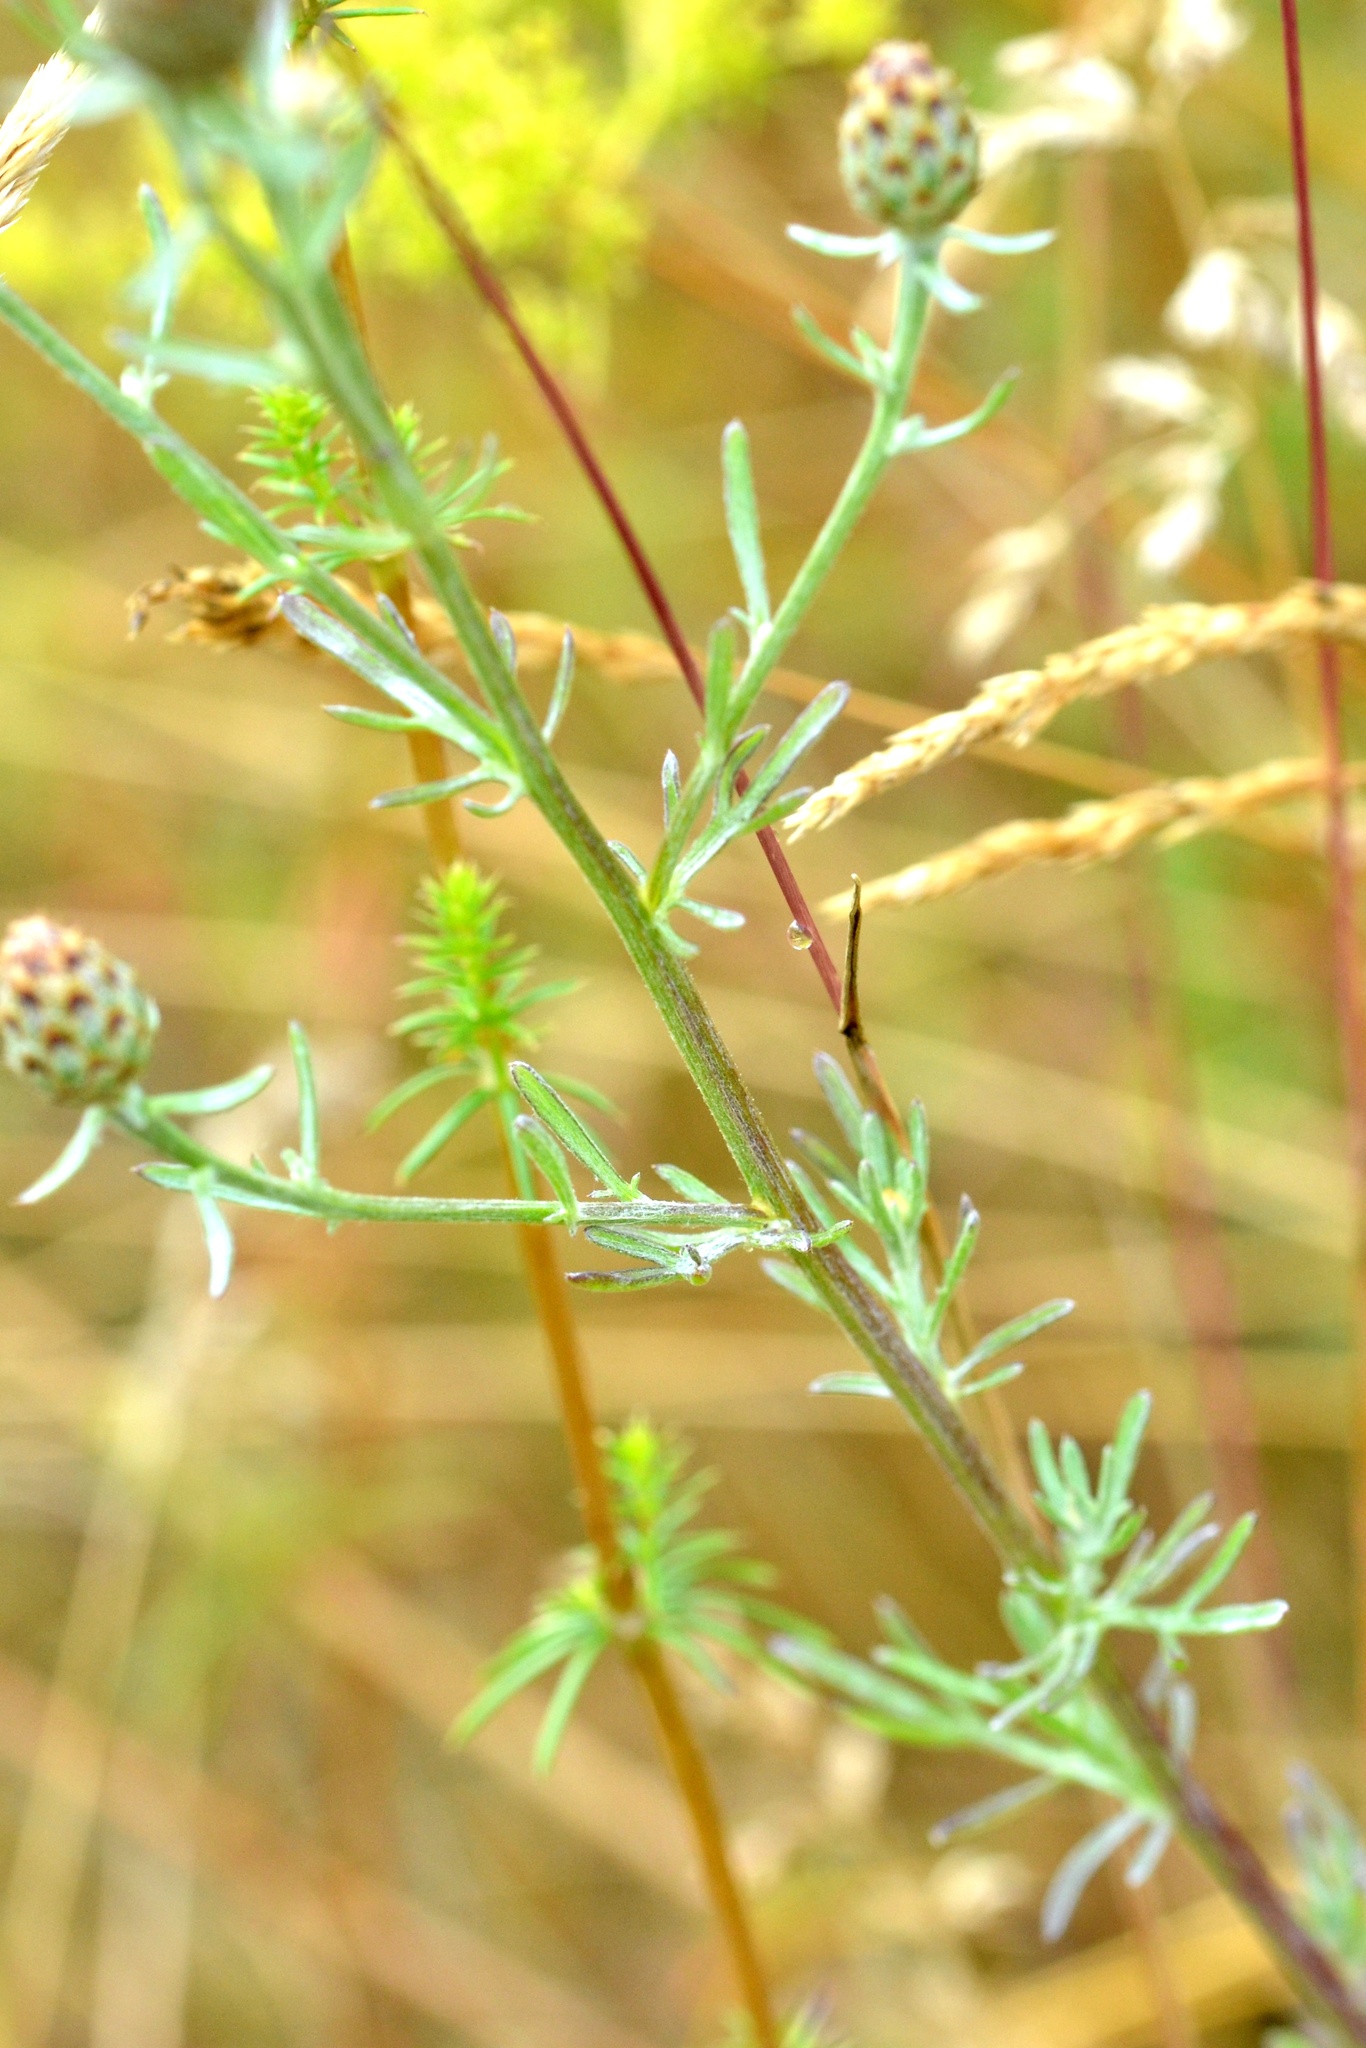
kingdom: Plantae
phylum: Tracheophyta
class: Magnoliopsida
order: Asterales
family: Asteraceae
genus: Centaurea
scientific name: Centaurea stoebe
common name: Spotted knapweed
